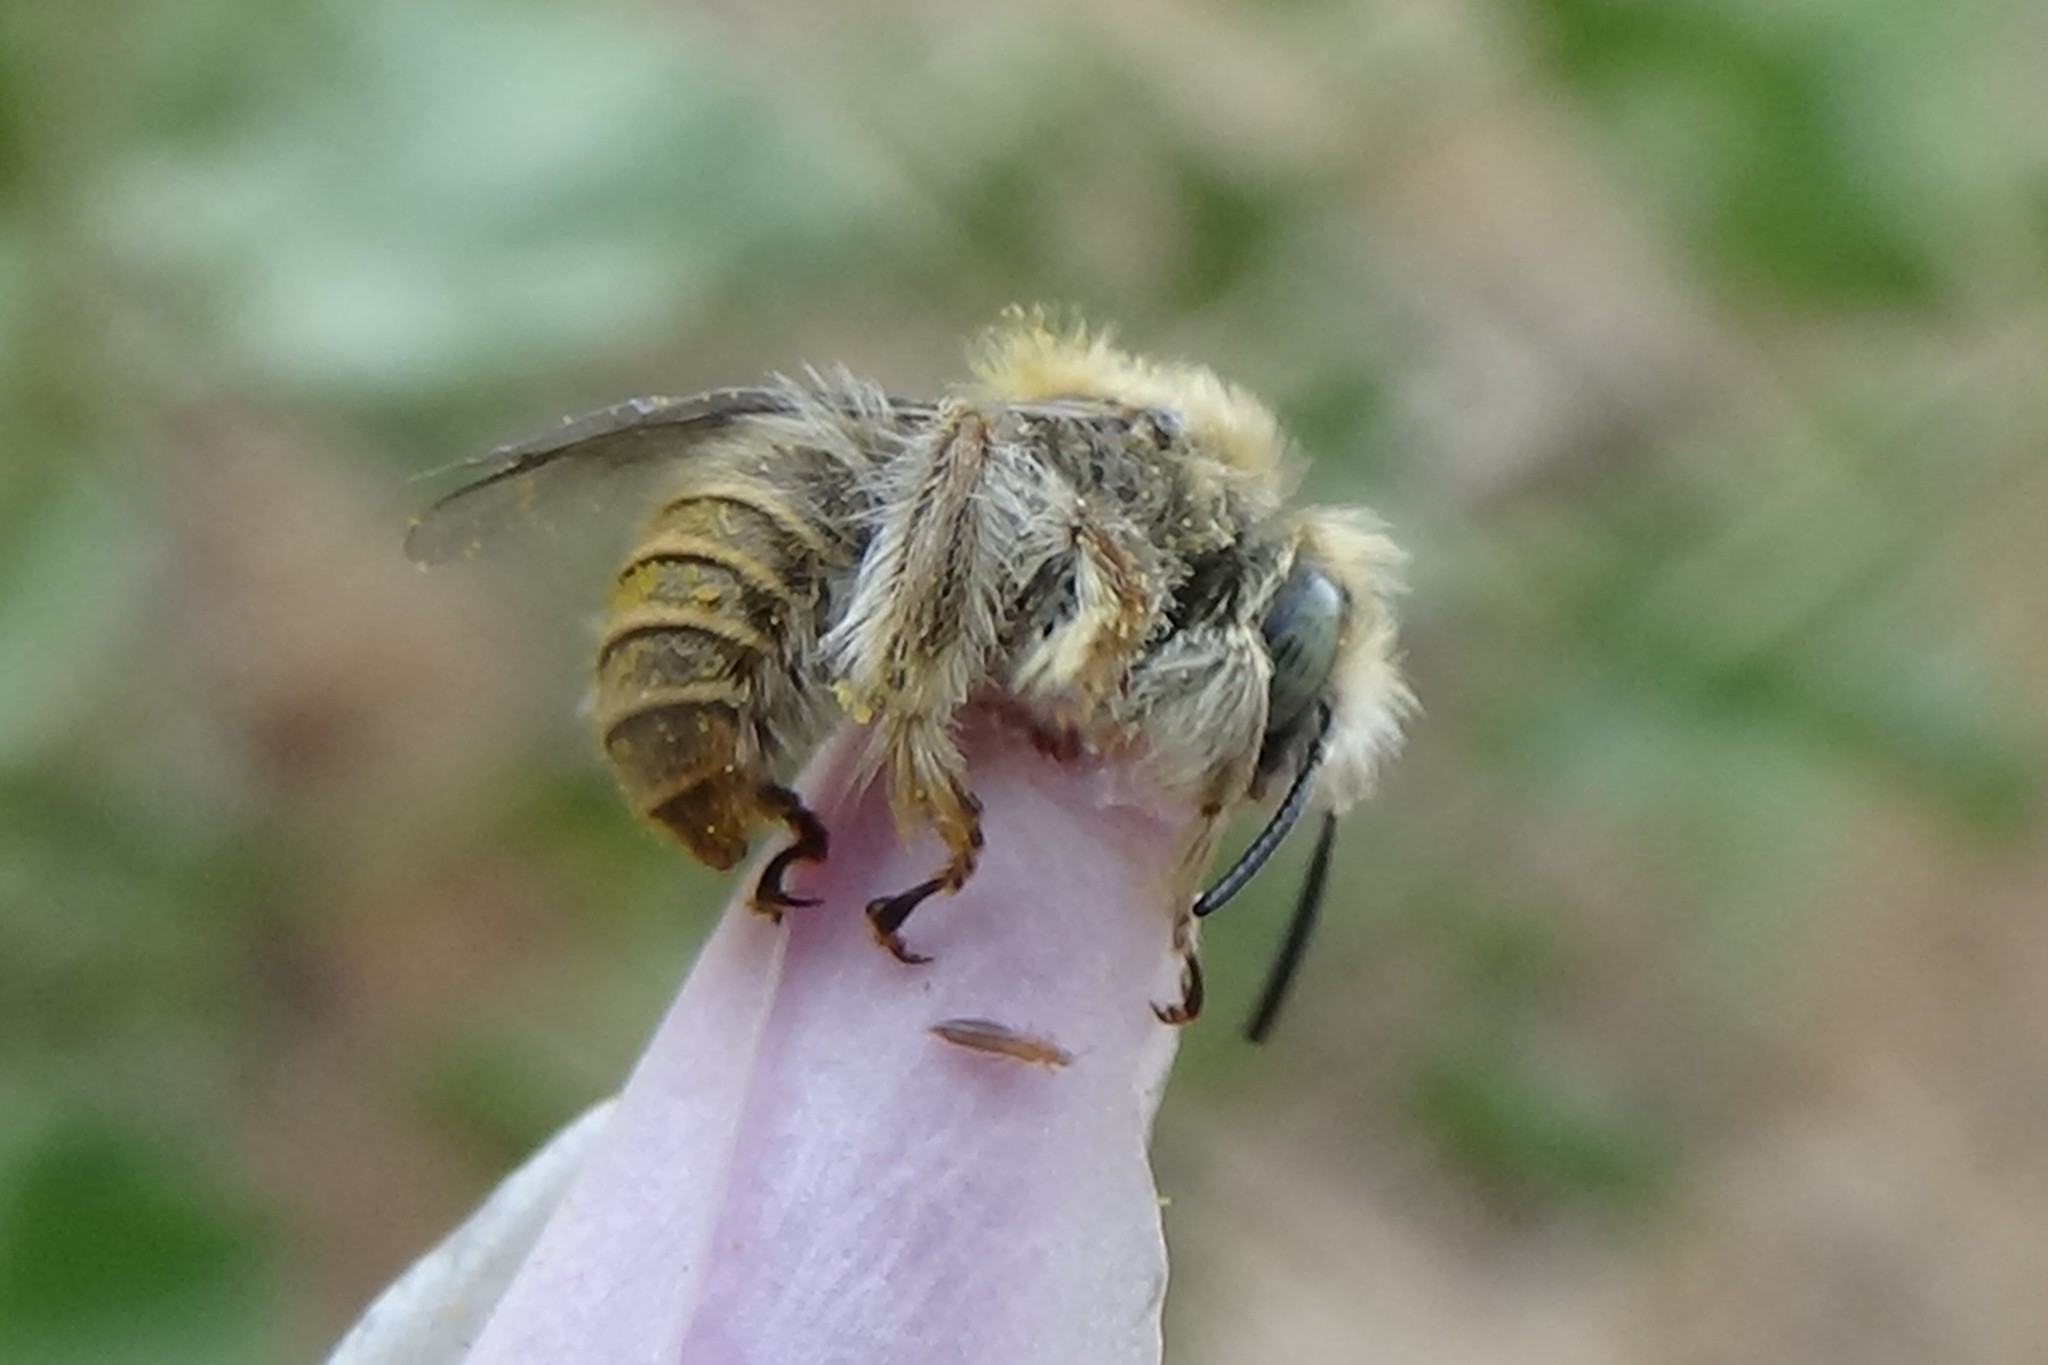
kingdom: Animalia
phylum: Arthropoda
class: Insecta
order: Hymenoptera
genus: Coquillettapis
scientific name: Coquillettapis
